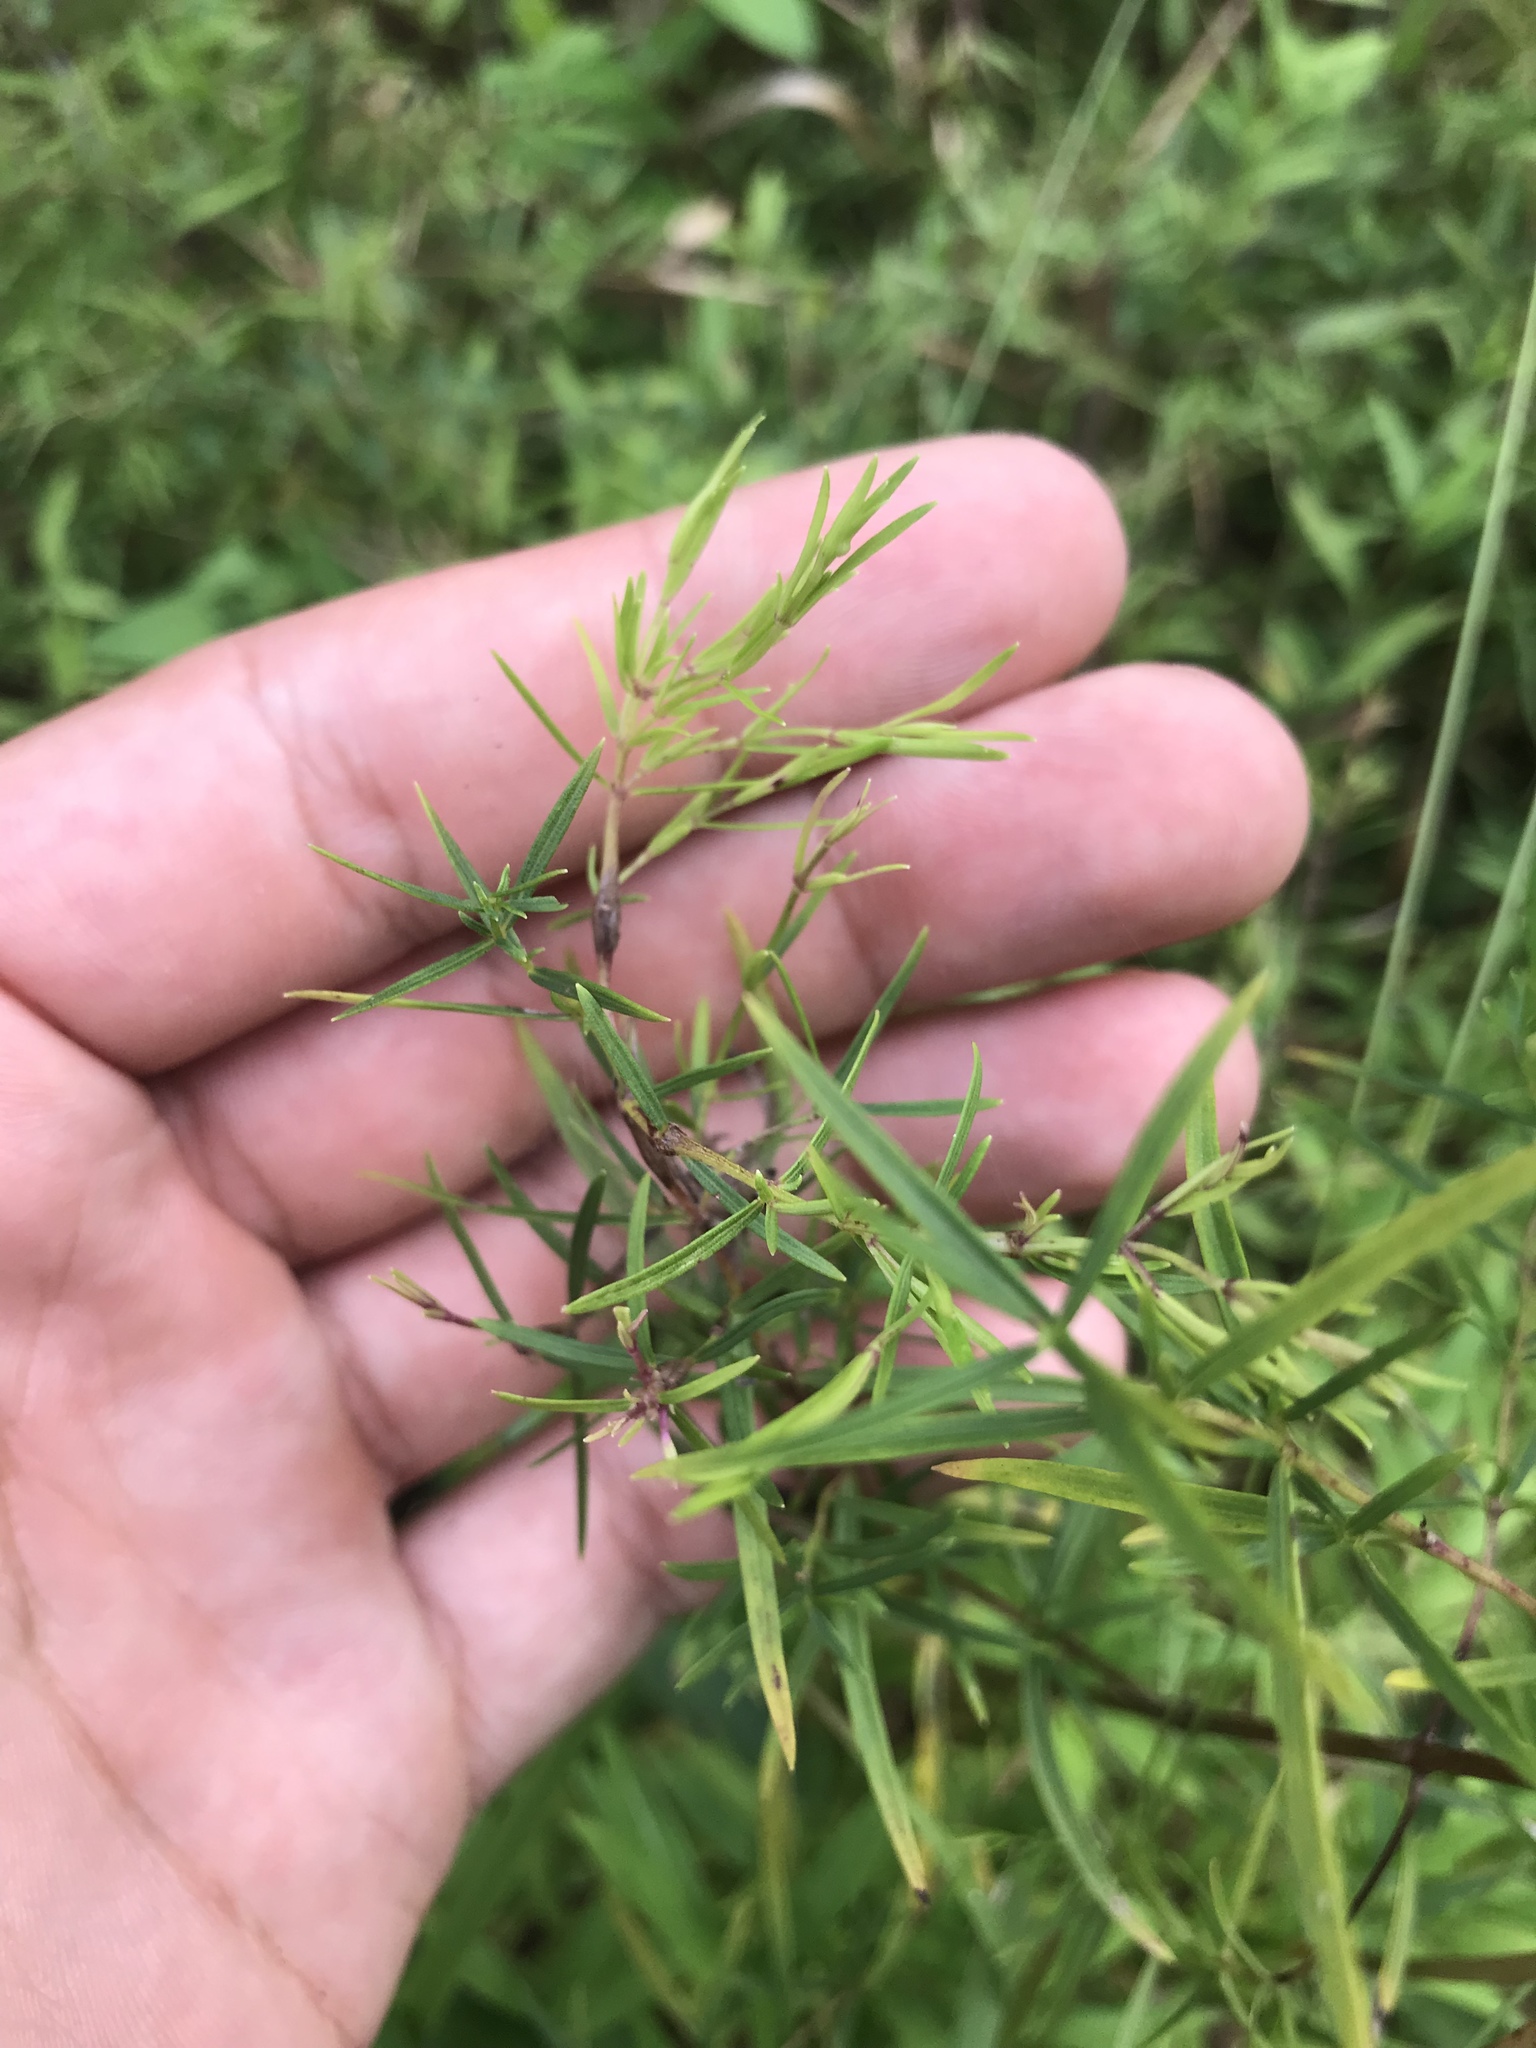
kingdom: Plantae
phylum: Tracheophyta
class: Magnoliopsida
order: Lamiales
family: Lamiaceae
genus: Pycnanthemum
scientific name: Pycnanthemum tenuifolium
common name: Narrow-leaf mountain-mint
